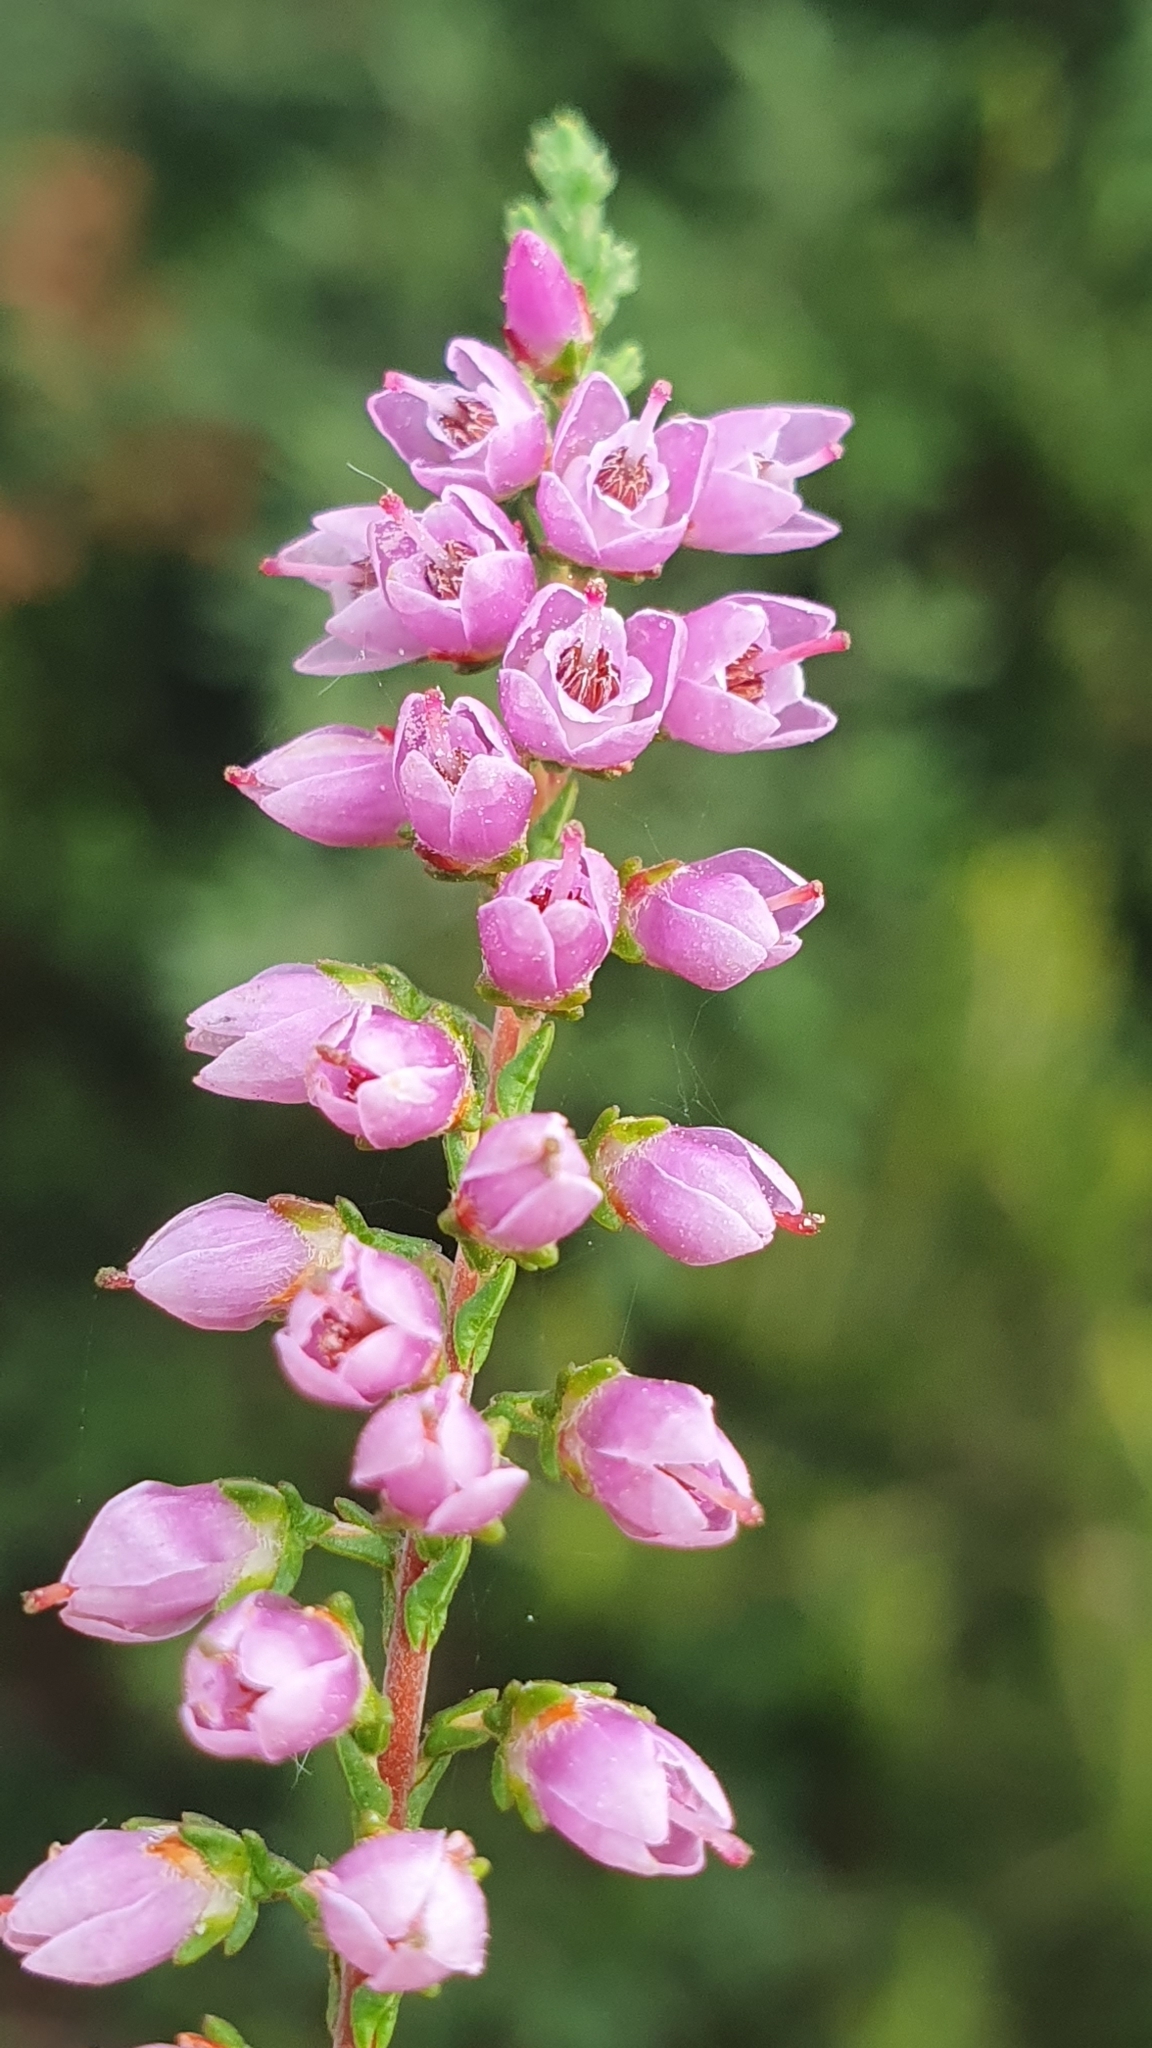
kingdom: Plantae
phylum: Tracheophyta
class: Magnoliopsida
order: Ericales
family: Ericaceae
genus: Calluna
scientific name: Calluna vulgaris
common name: Heather
